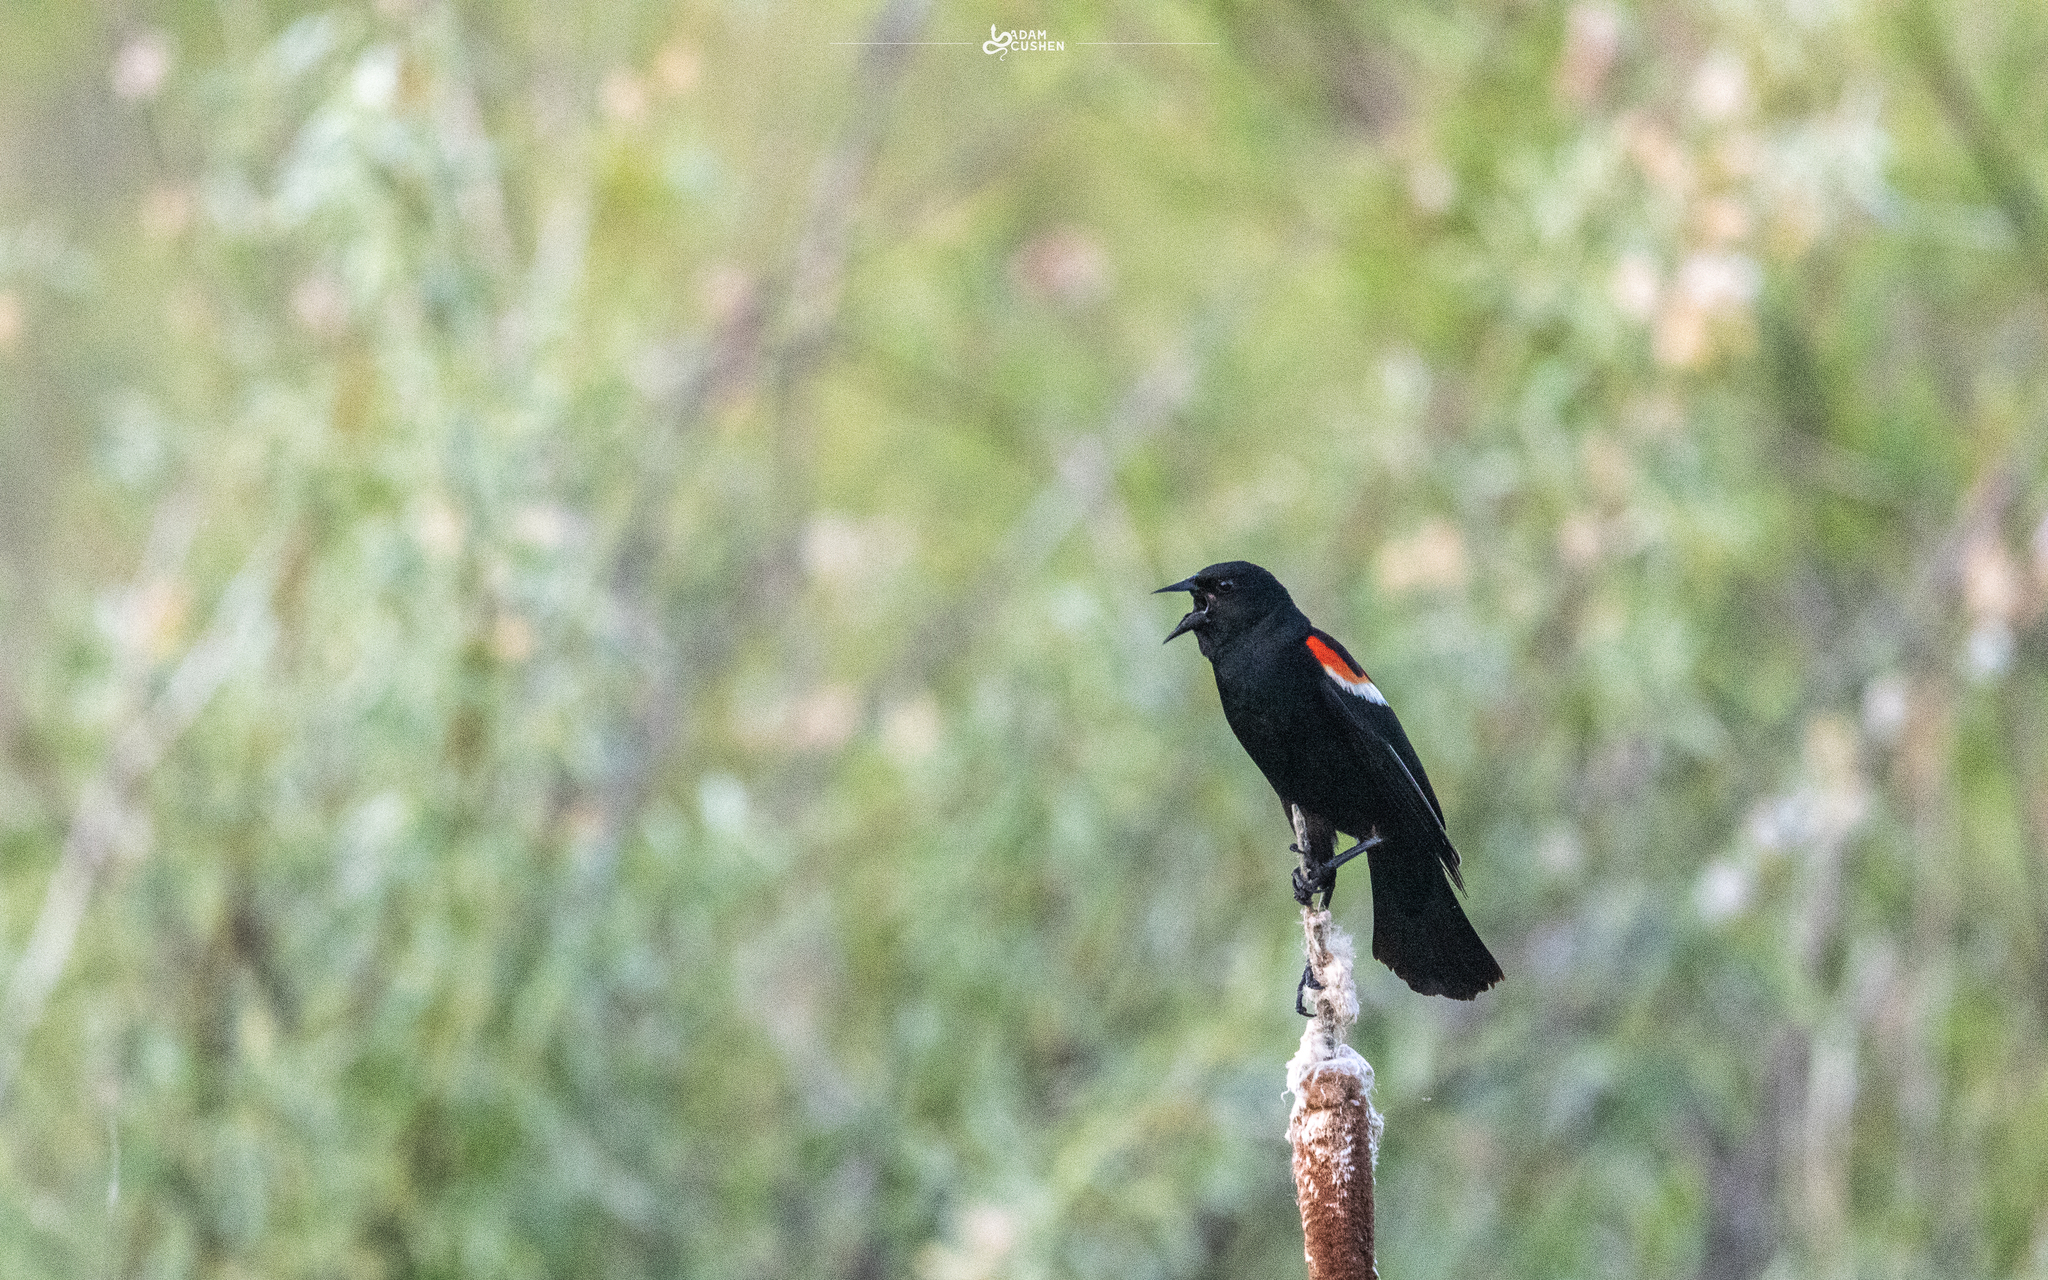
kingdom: Animalia
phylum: Chordata
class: Aves
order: Passeriformes
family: Icteridae
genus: Agelaius
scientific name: Agelaius phoeniceus
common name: Red-winged blackbird
